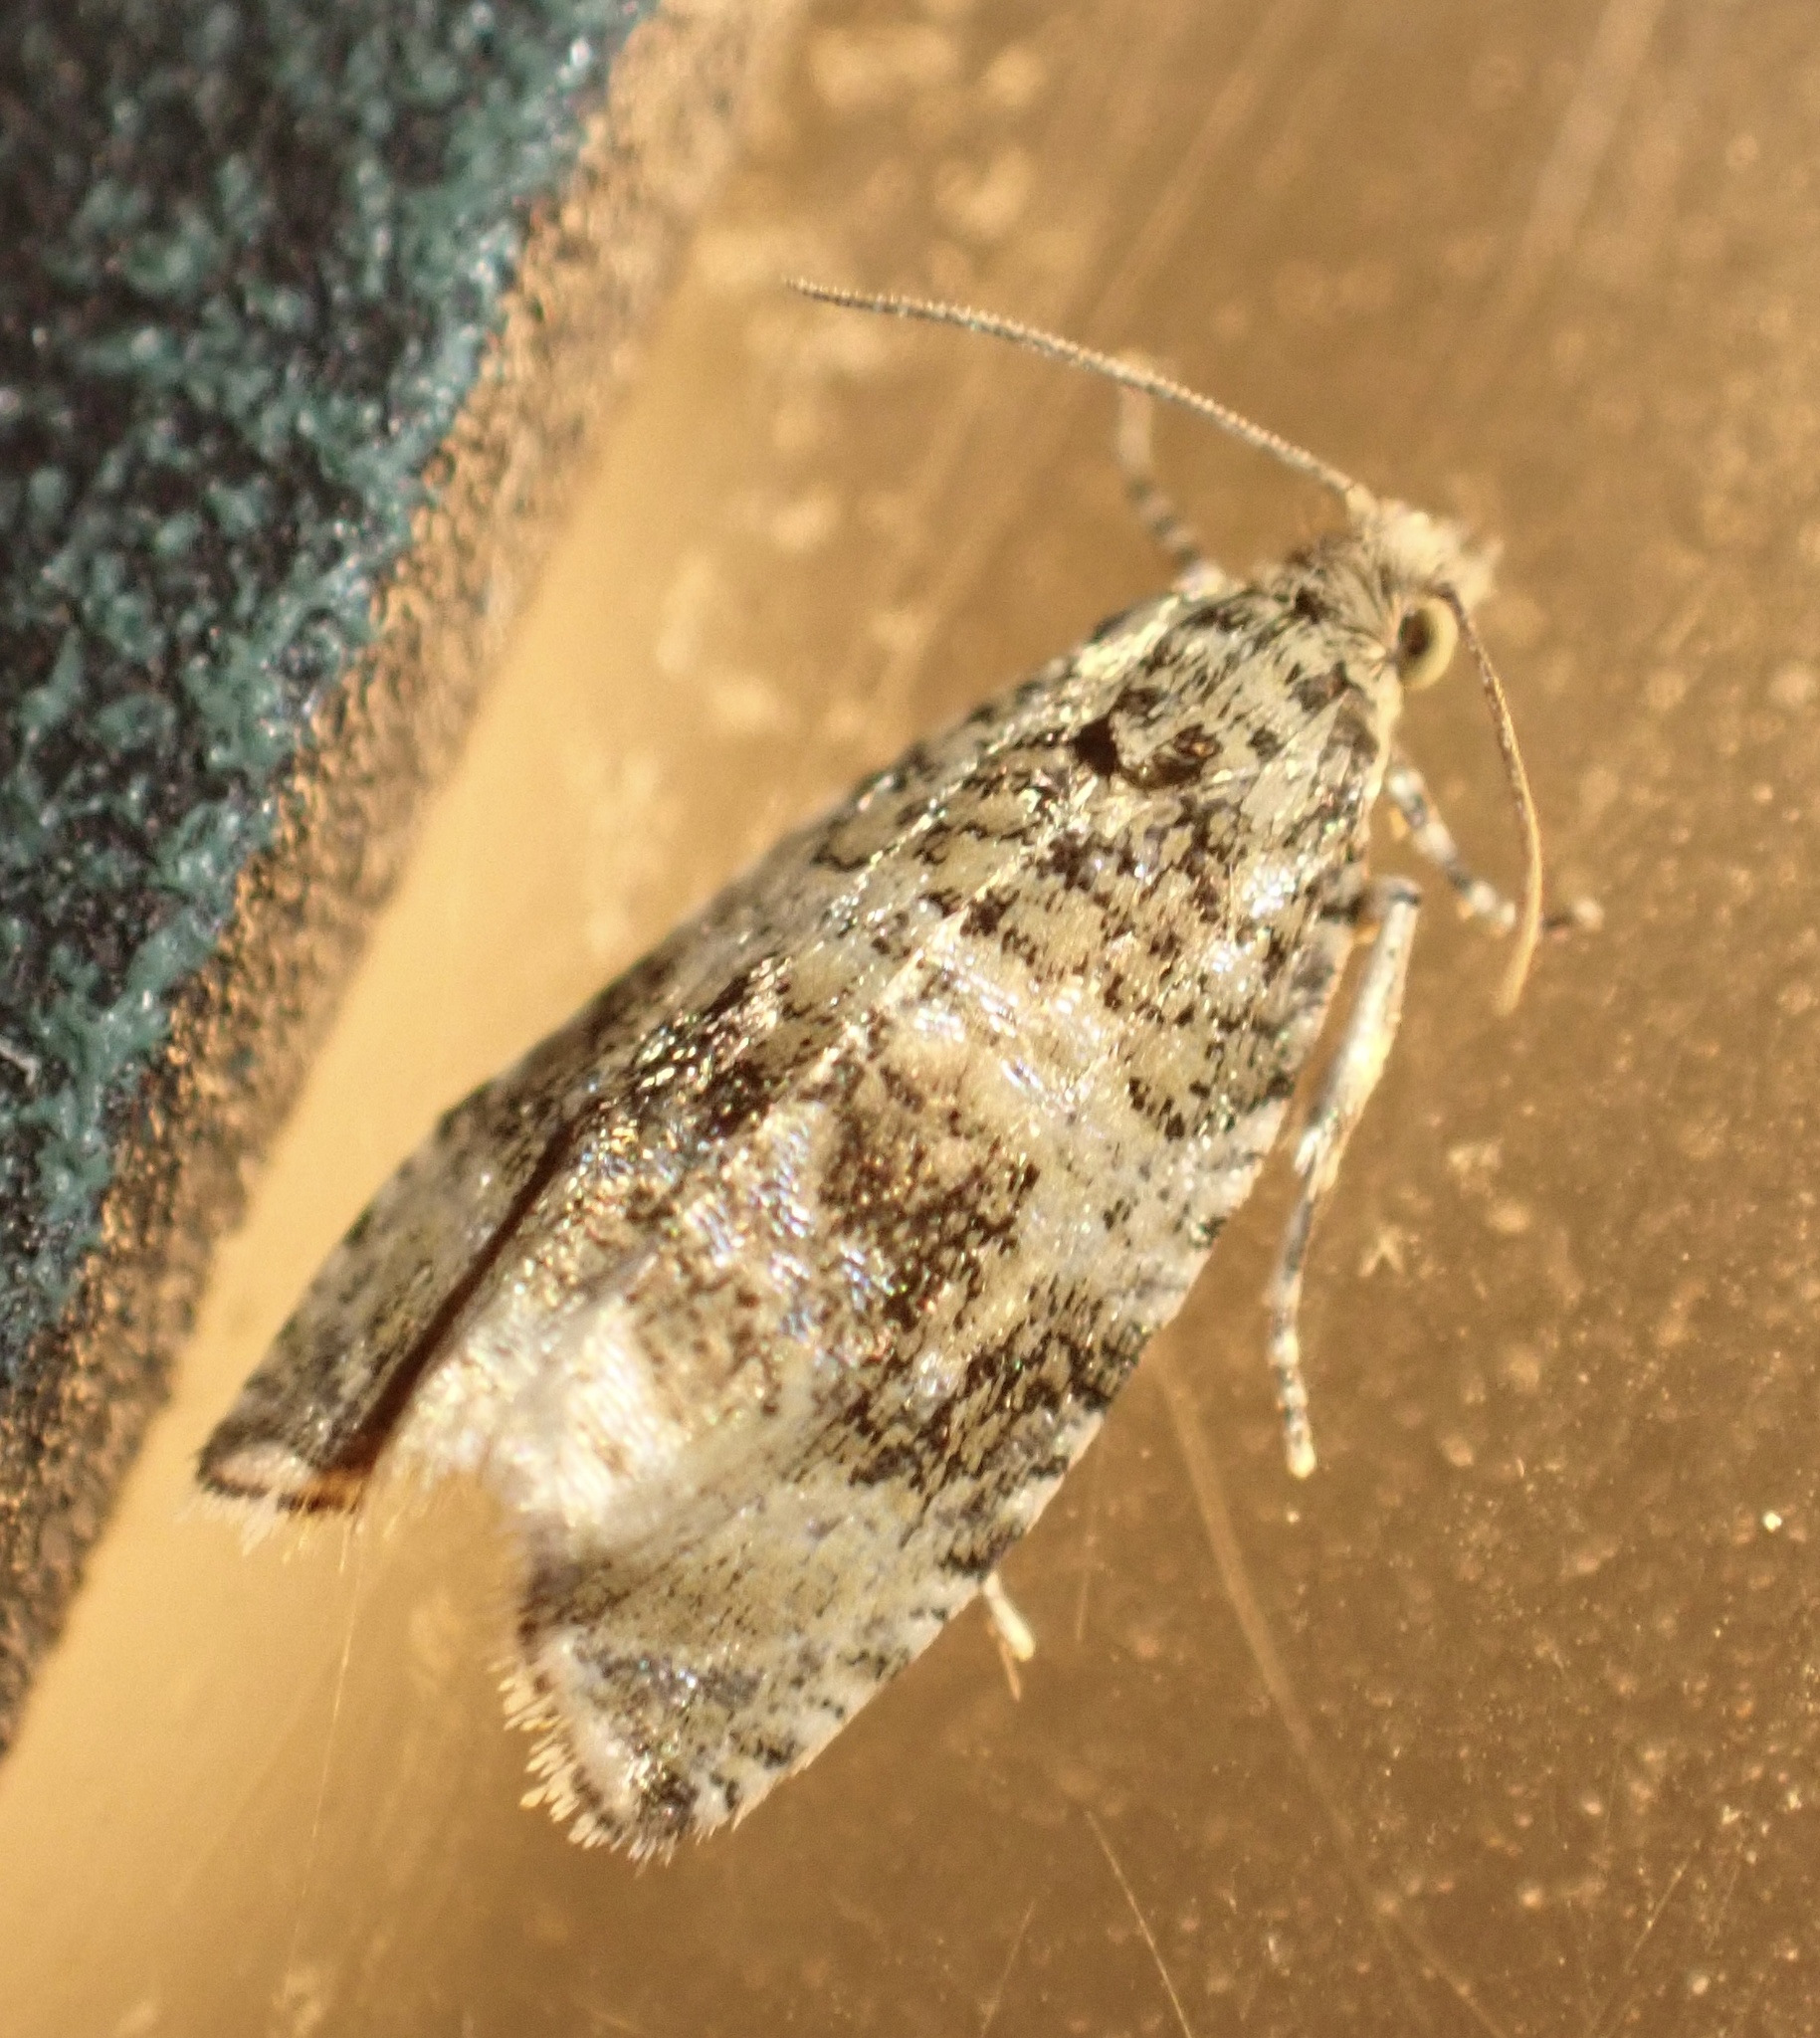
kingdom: Animalia
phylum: Arthropoda
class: Insecta
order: Lepidoptera
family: Tortricidae
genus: Syricoris
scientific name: Syricoris lacunana
